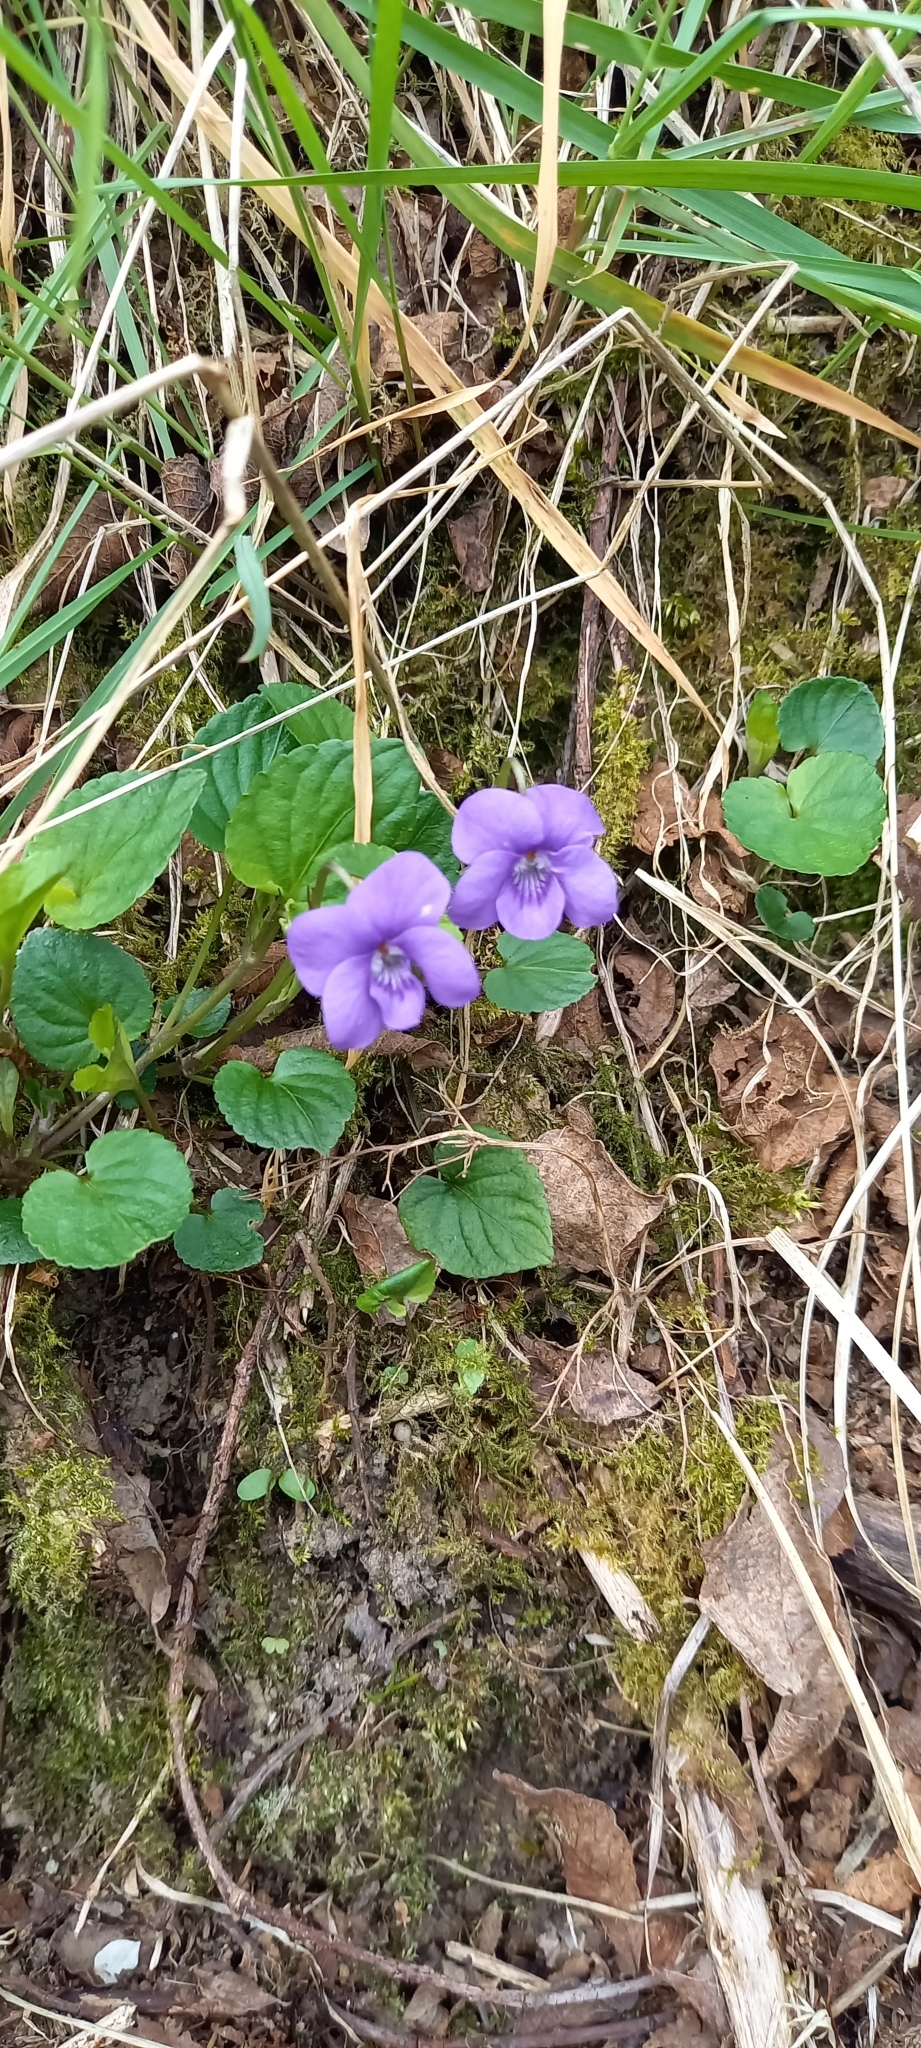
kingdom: Plantae
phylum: Tracheophyta
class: Magnoliopsida
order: Malpighiales
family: Violaceae
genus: Viola
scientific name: Viola riviniana
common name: Common dog-violet
